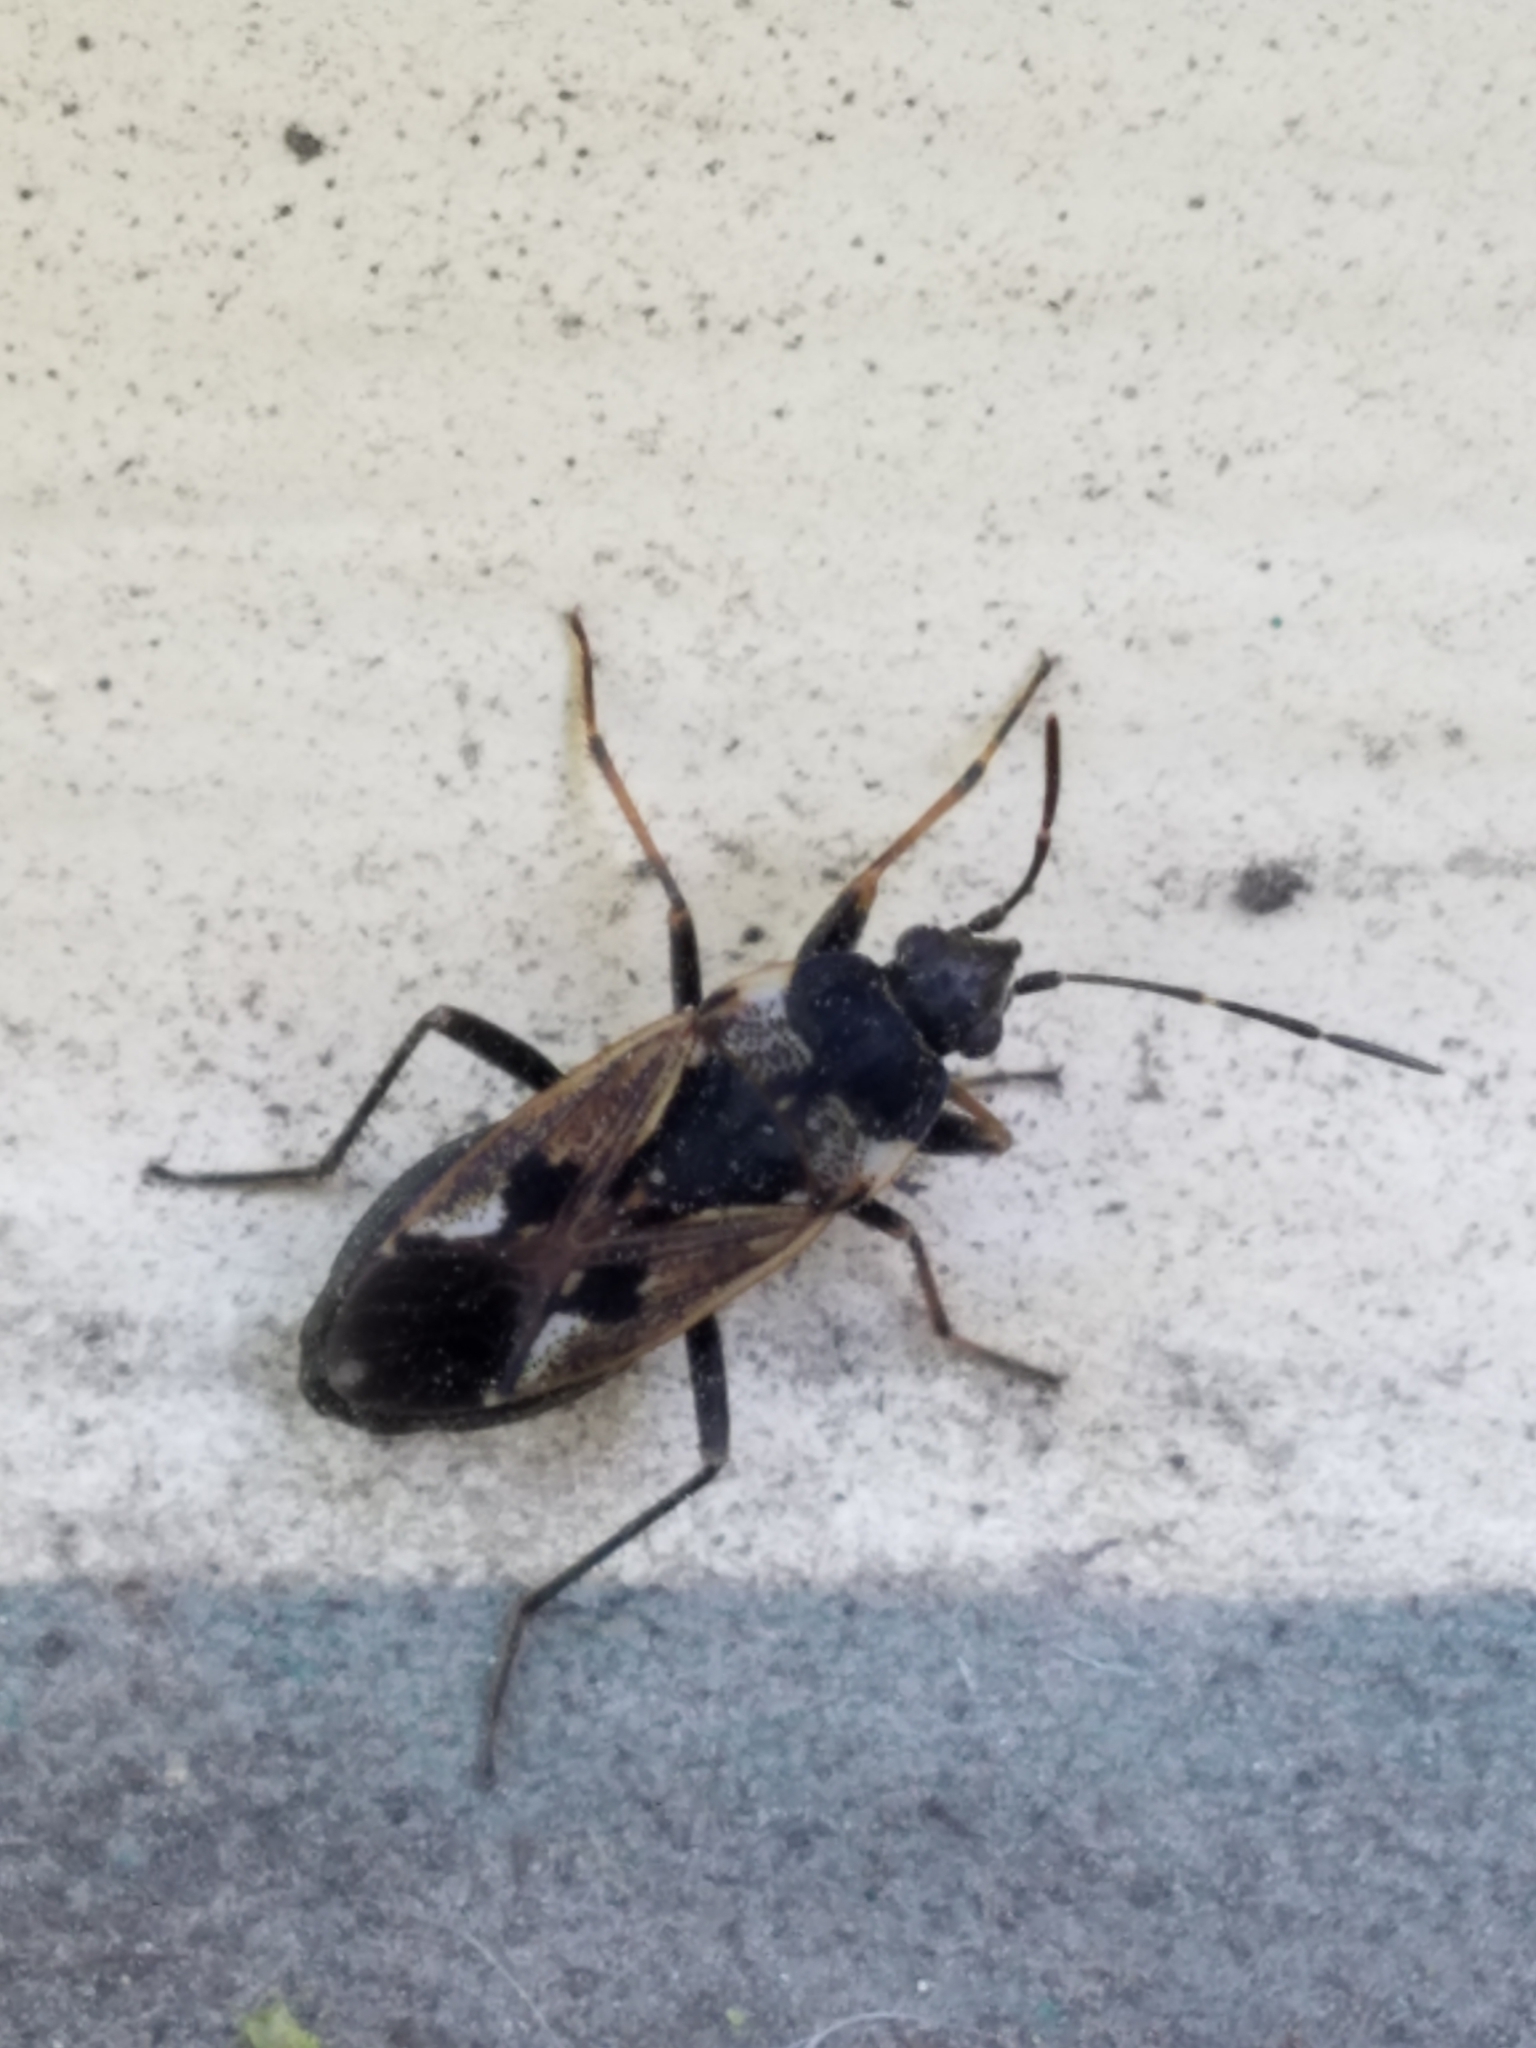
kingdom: Animalia
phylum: Arthropoda
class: Insecta
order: Hemiptera
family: Rhyparochromidae
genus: Rhyparochromus
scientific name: Rhyparochromus vulgaris
